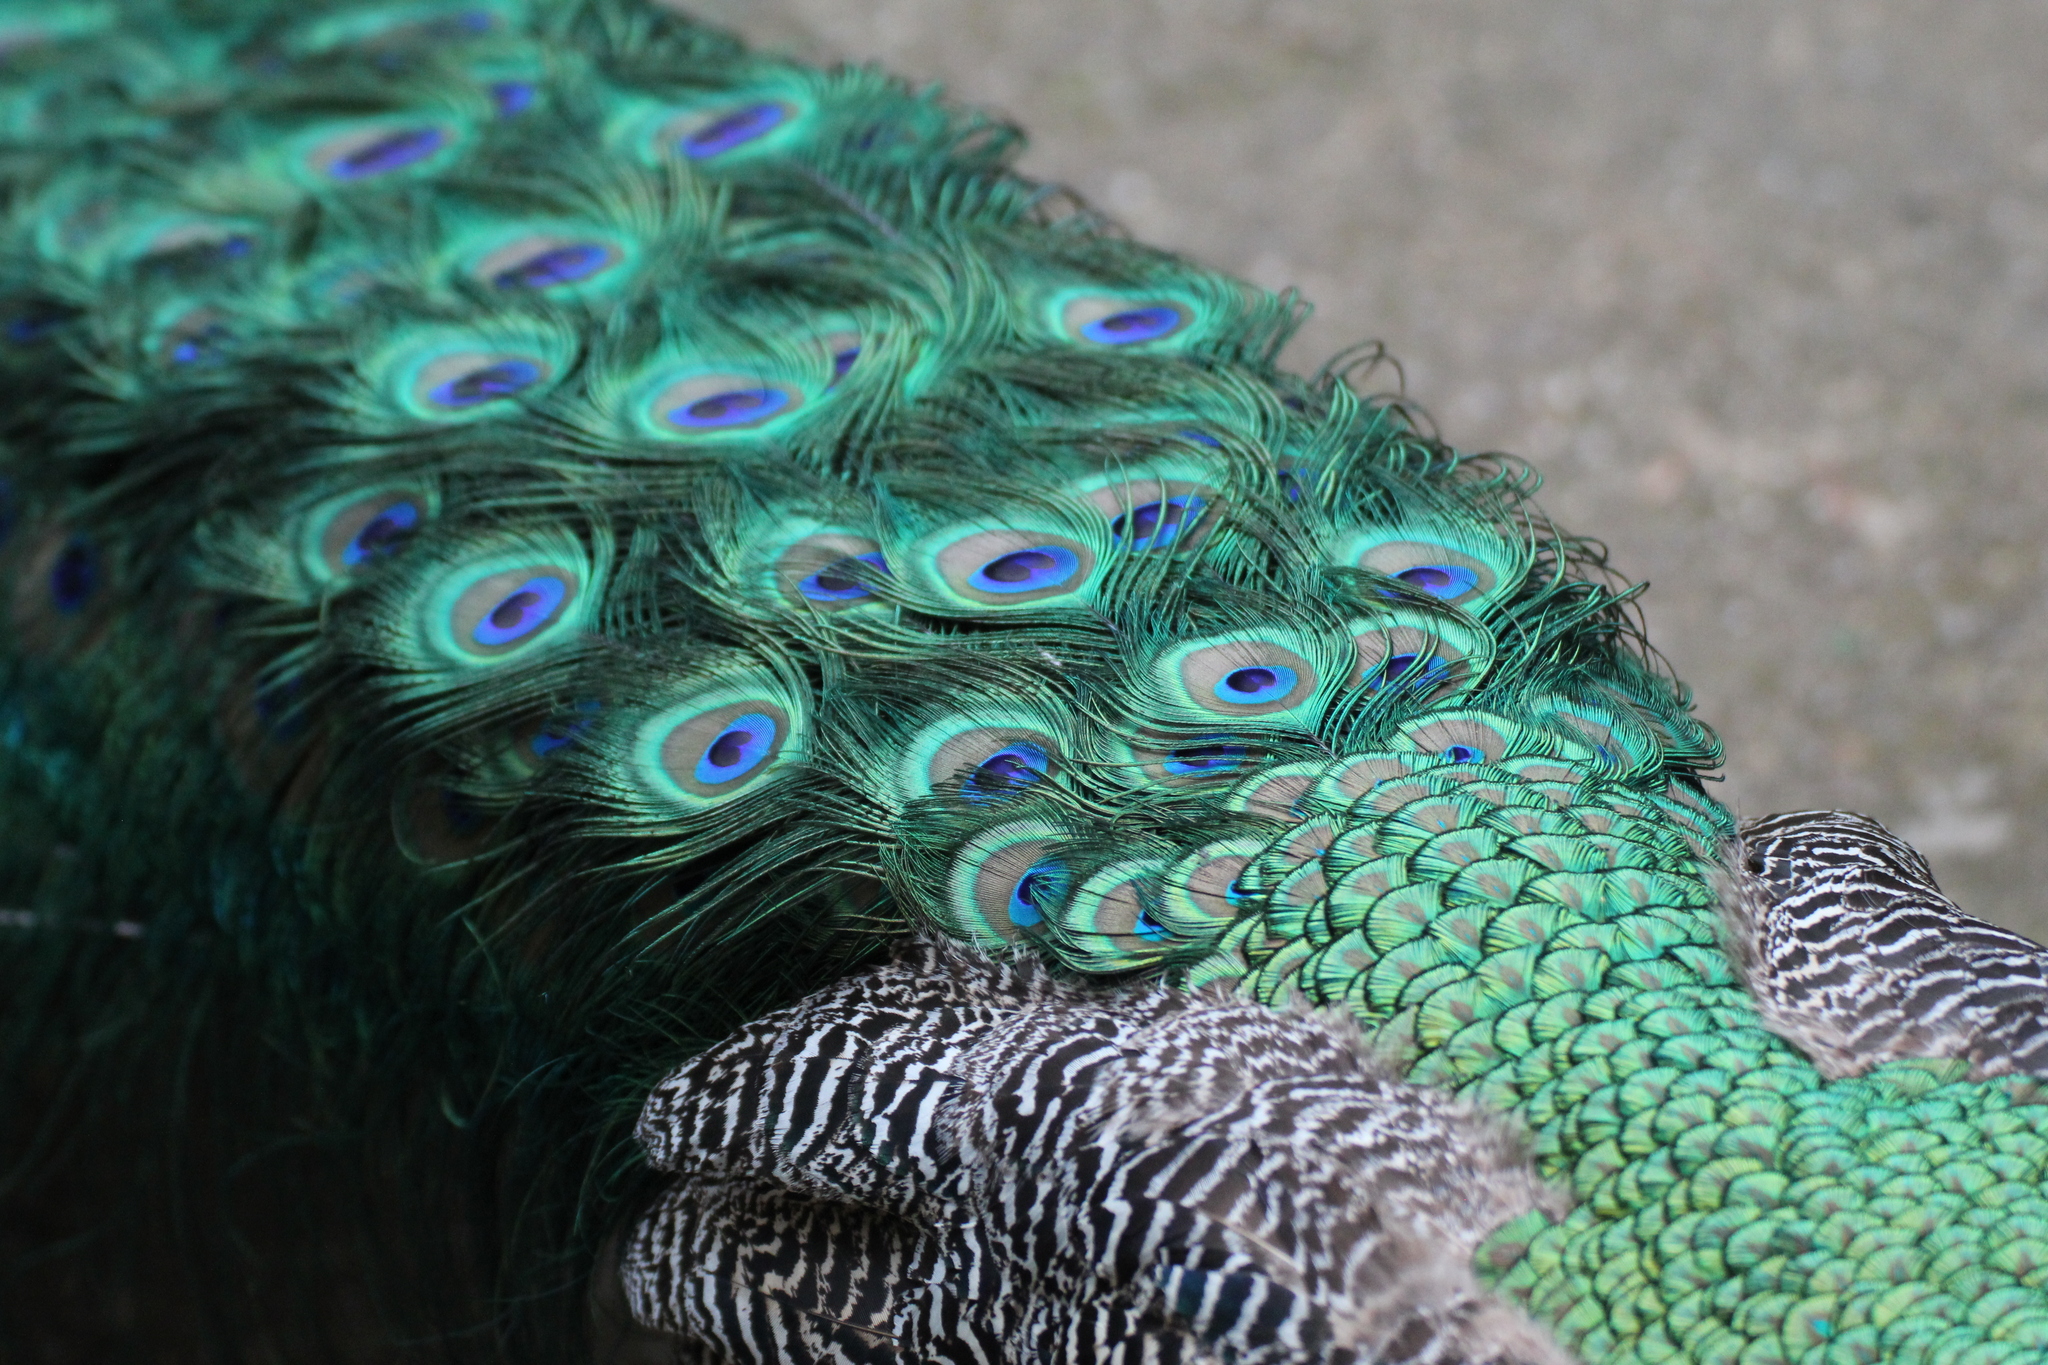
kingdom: Animalia
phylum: Chordata
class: Aves
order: Galliformes
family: Phasianidae
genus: Pavo
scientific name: Pavo cristatus
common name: Indian peafowl
